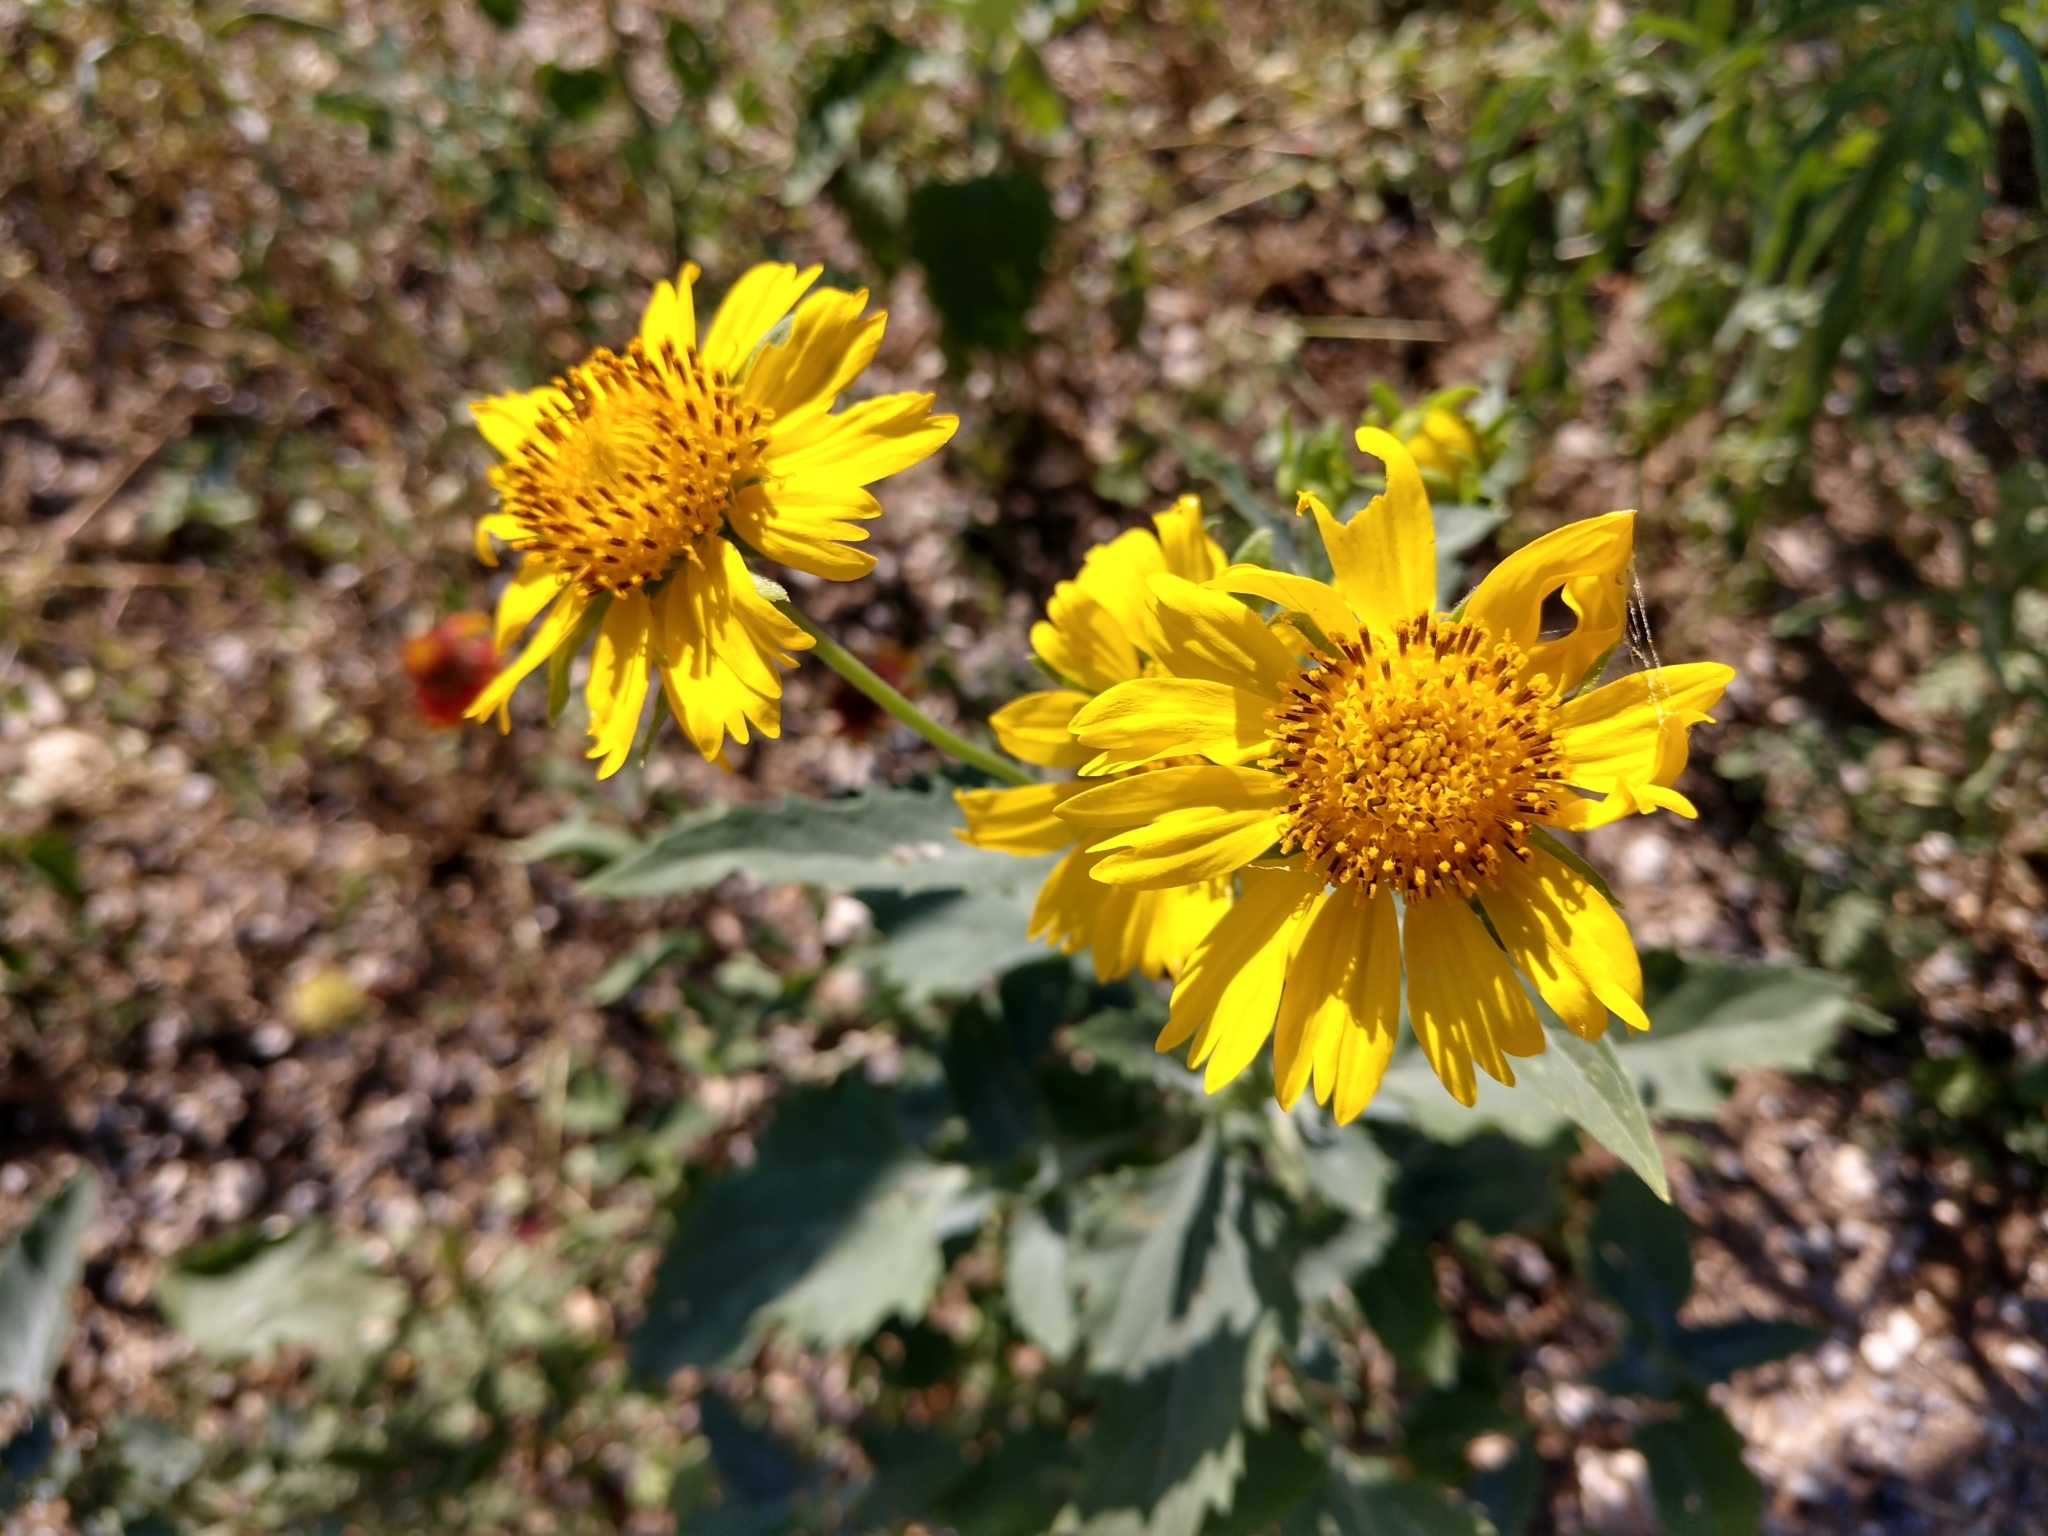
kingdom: Plantae
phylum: Tracheophyta
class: Magnoliopsida
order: Asterales
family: Asteraceae
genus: Verbesina
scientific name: Verbesina encelioides
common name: Golden crownbeard
